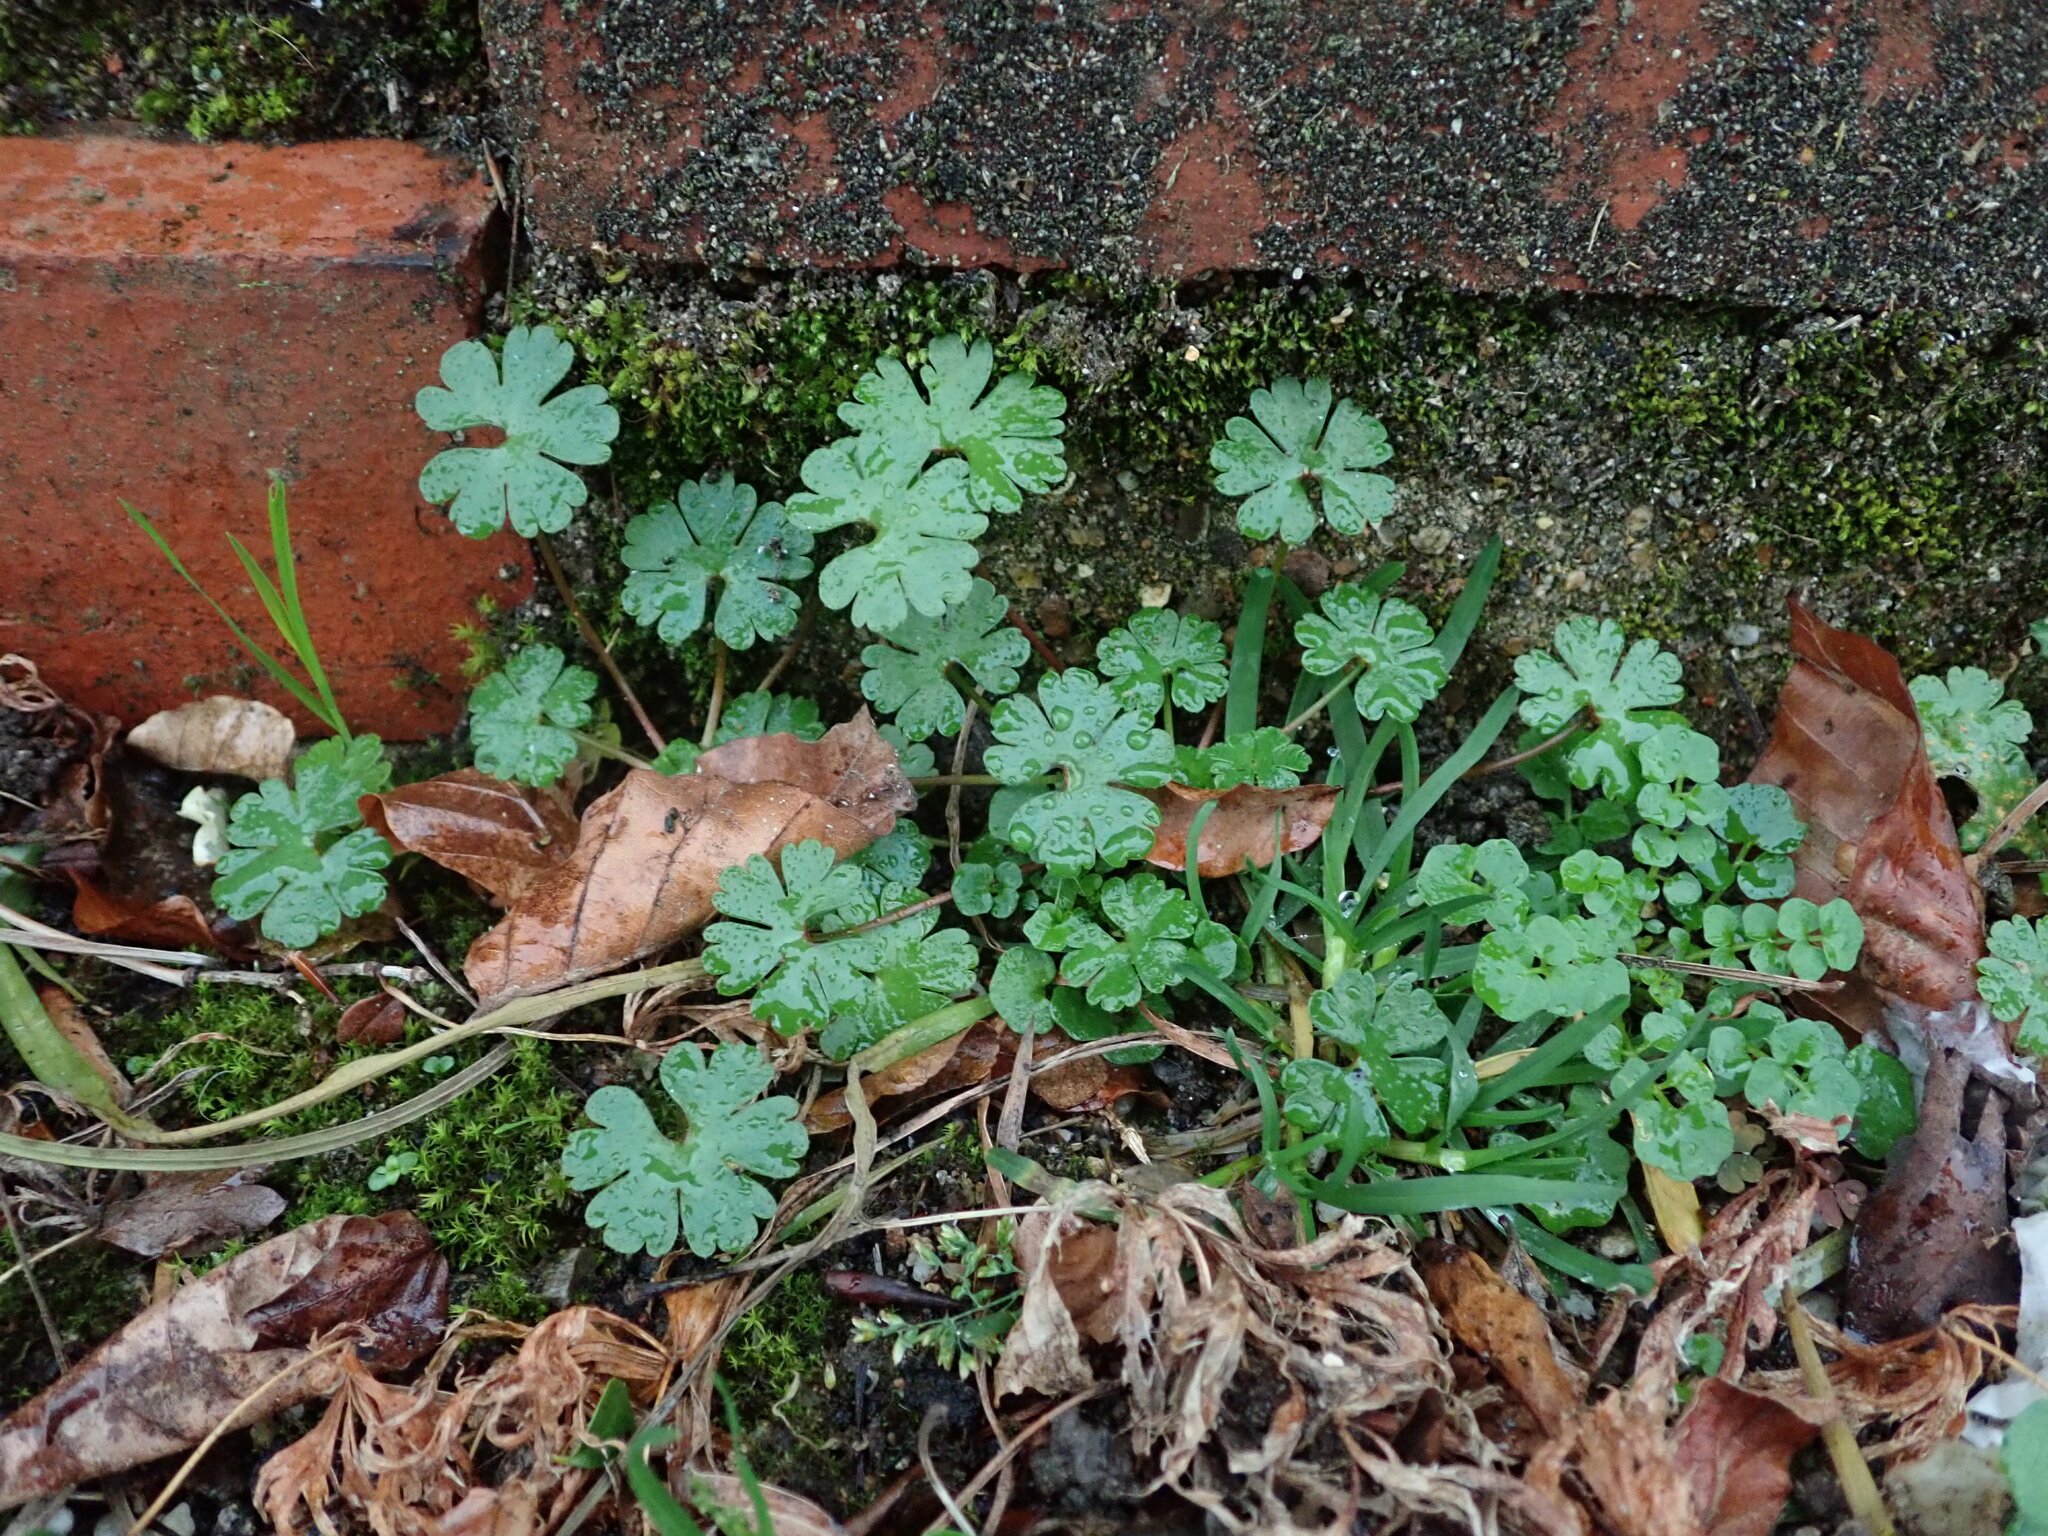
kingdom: Plantae
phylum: Tracheophyta
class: Magnoliopsida
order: Geraniales
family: Geraniaceae
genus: Geranium
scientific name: Geranium lucidum
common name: Shining crane's-bill
